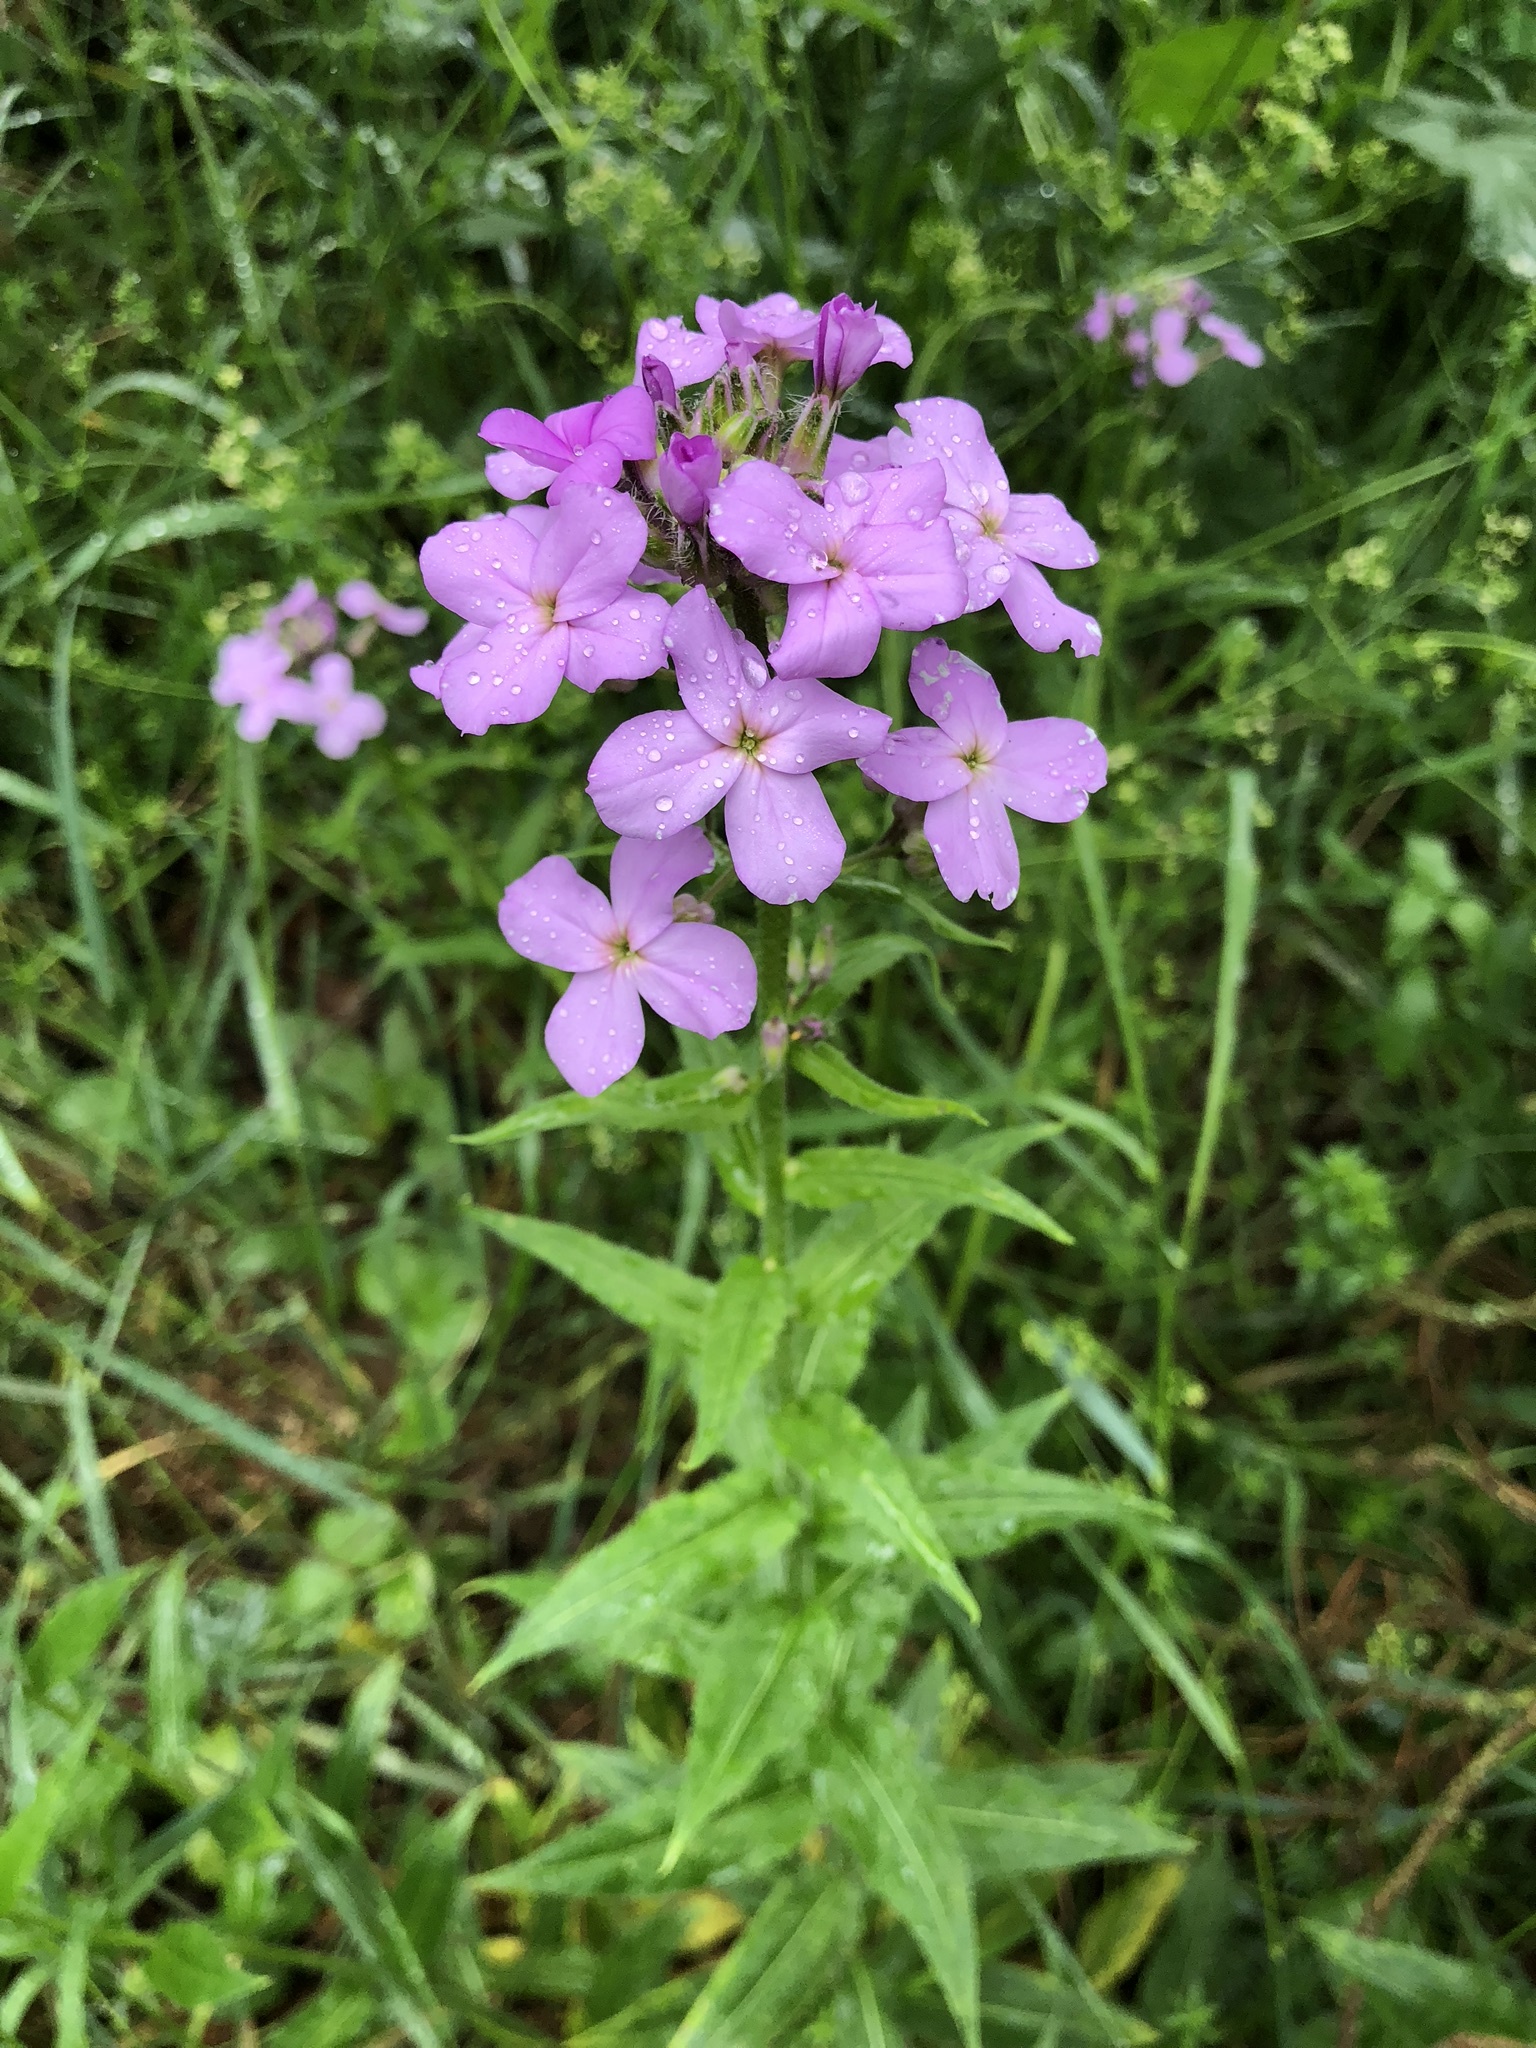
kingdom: Plantae
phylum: Tracheophyta
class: Magnoliopsida
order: Brassicales
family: Brassicaceae
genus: Hesperis
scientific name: Hesperis matronalis
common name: Dame's-violet
